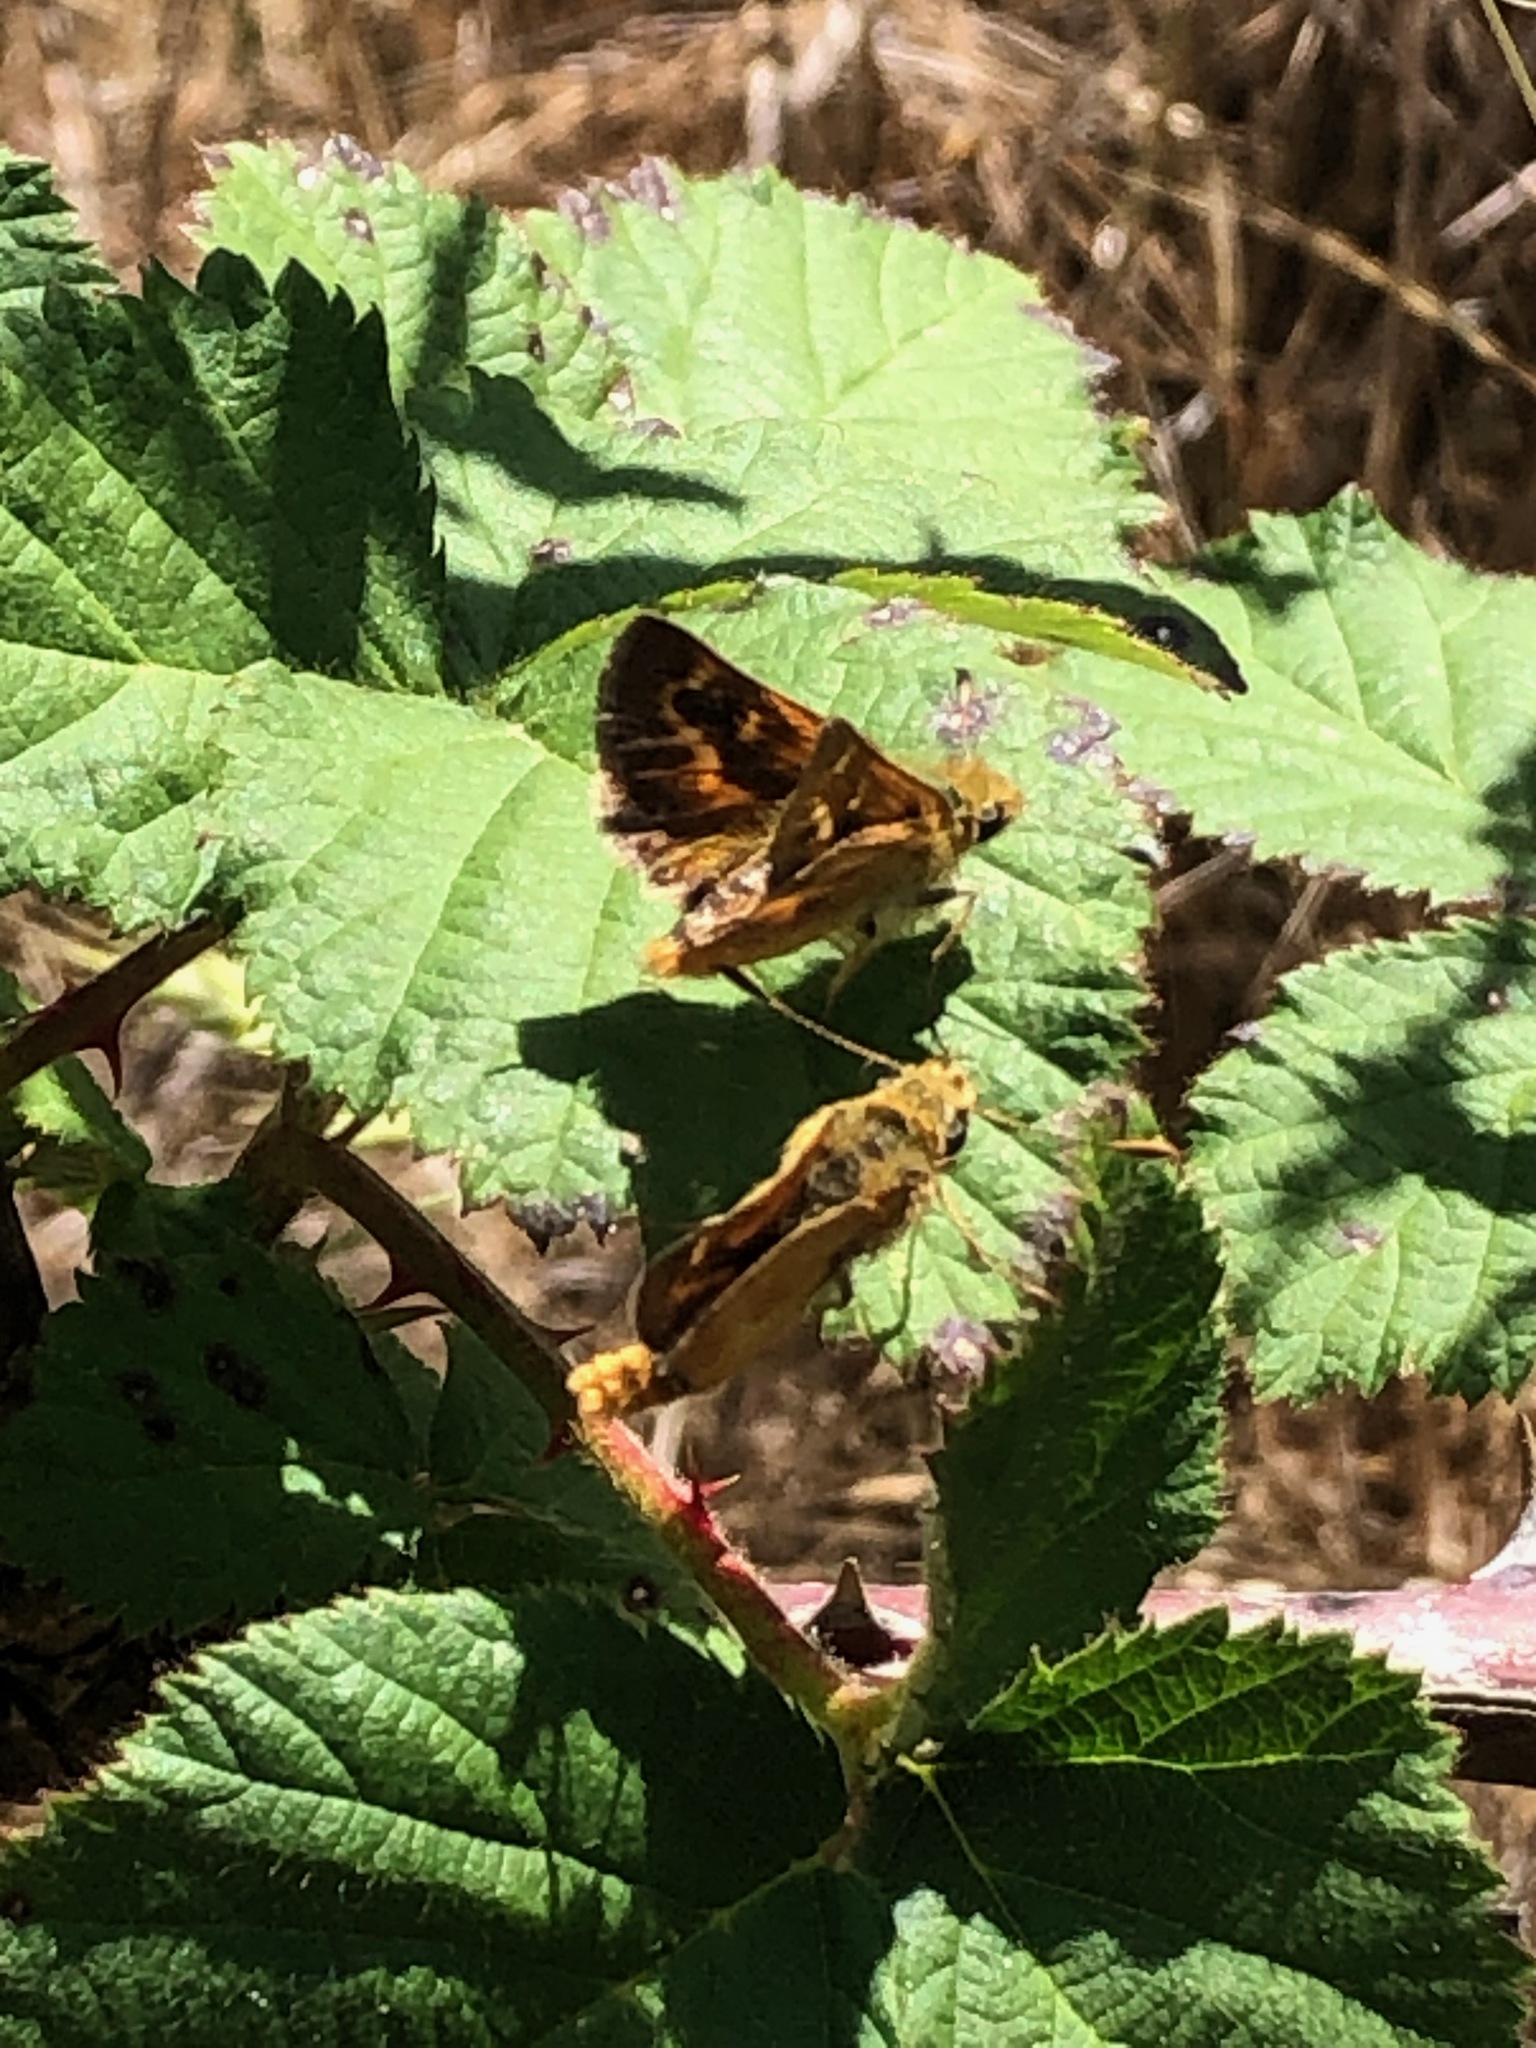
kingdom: Animalia
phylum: Arthropoda
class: Insecta
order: Lepidoptera
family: Hesperiidae
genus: Ochlodes
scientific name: Ochlodes agricola
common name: Rural skipper
